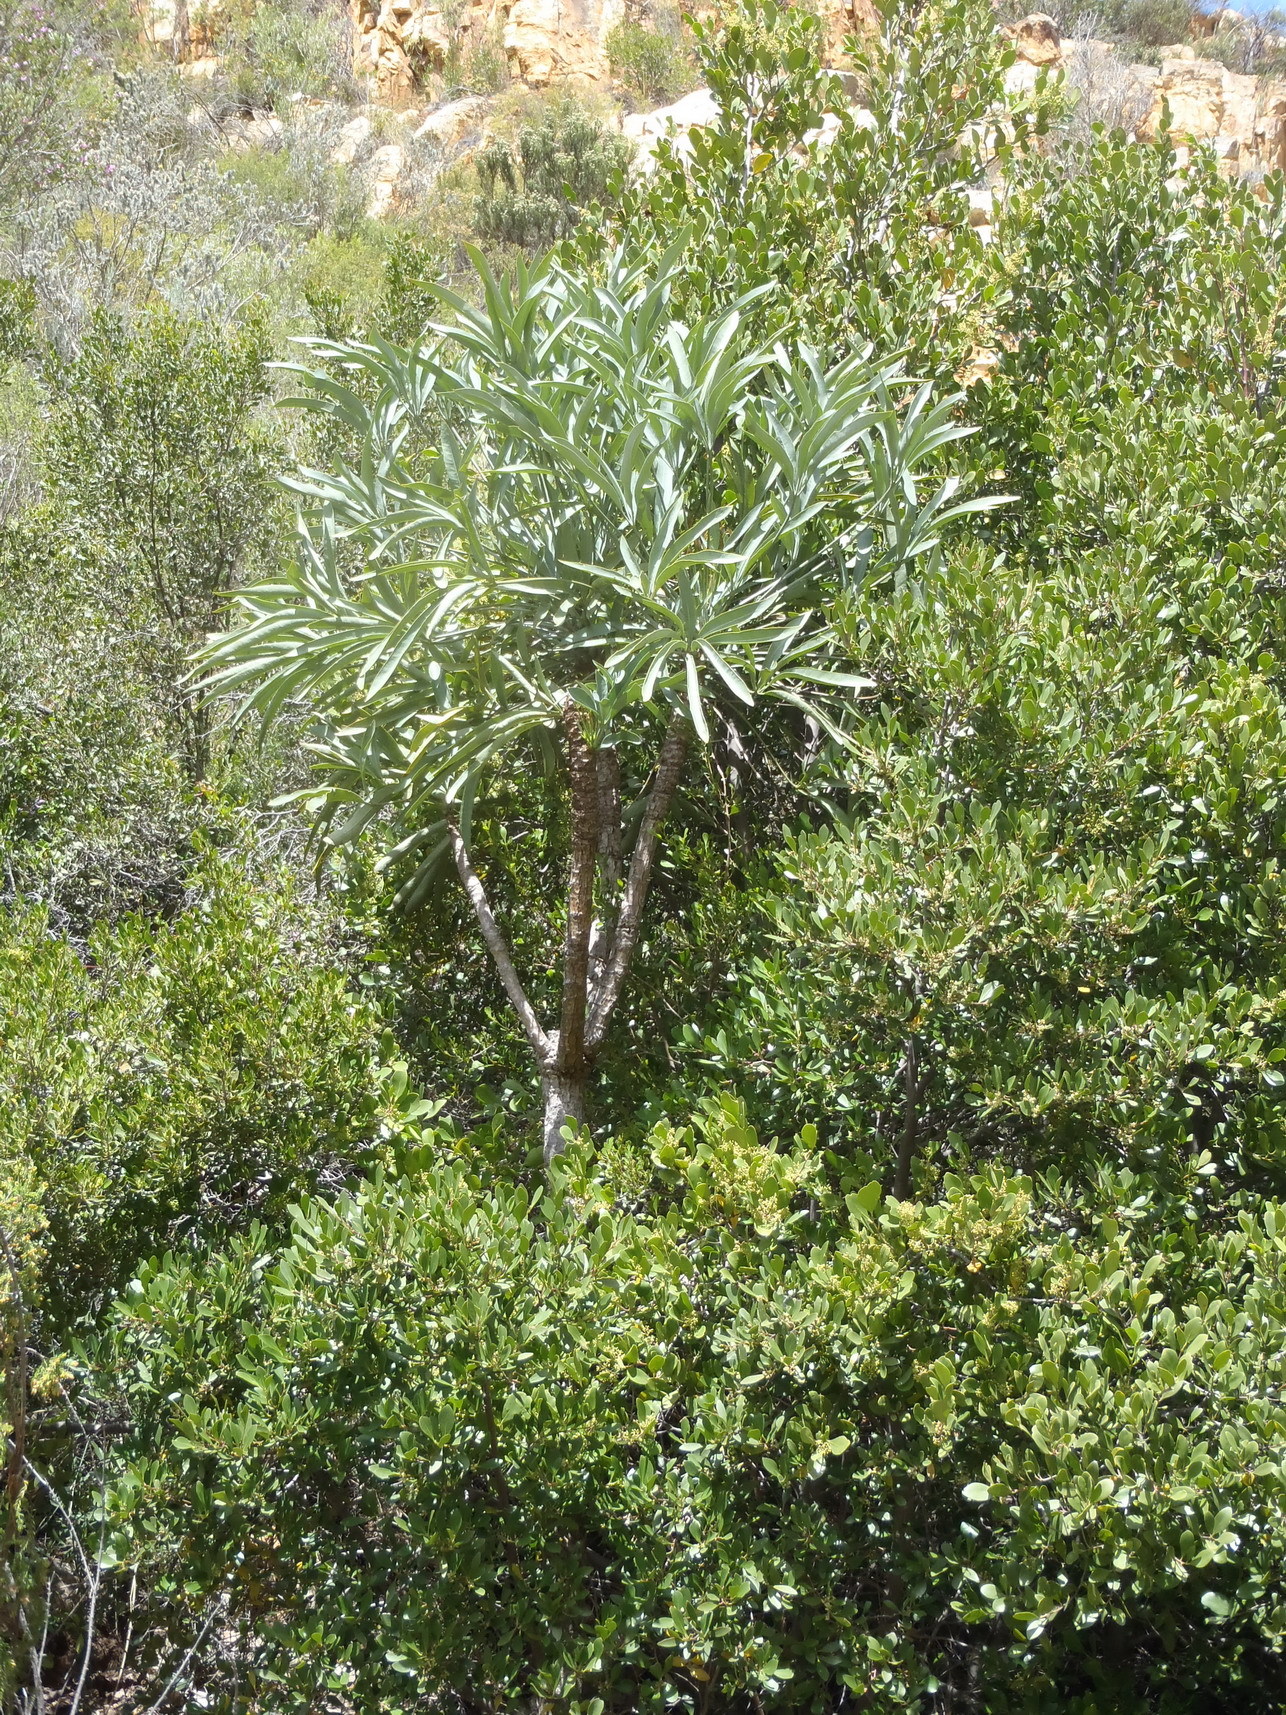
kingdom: Plantae
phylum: Tracheophyta
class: Magnoliopsida
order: Apiales
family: Araliaceae
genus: Cussonia
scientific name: Cussonia paniculata
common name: Cabbagetree
